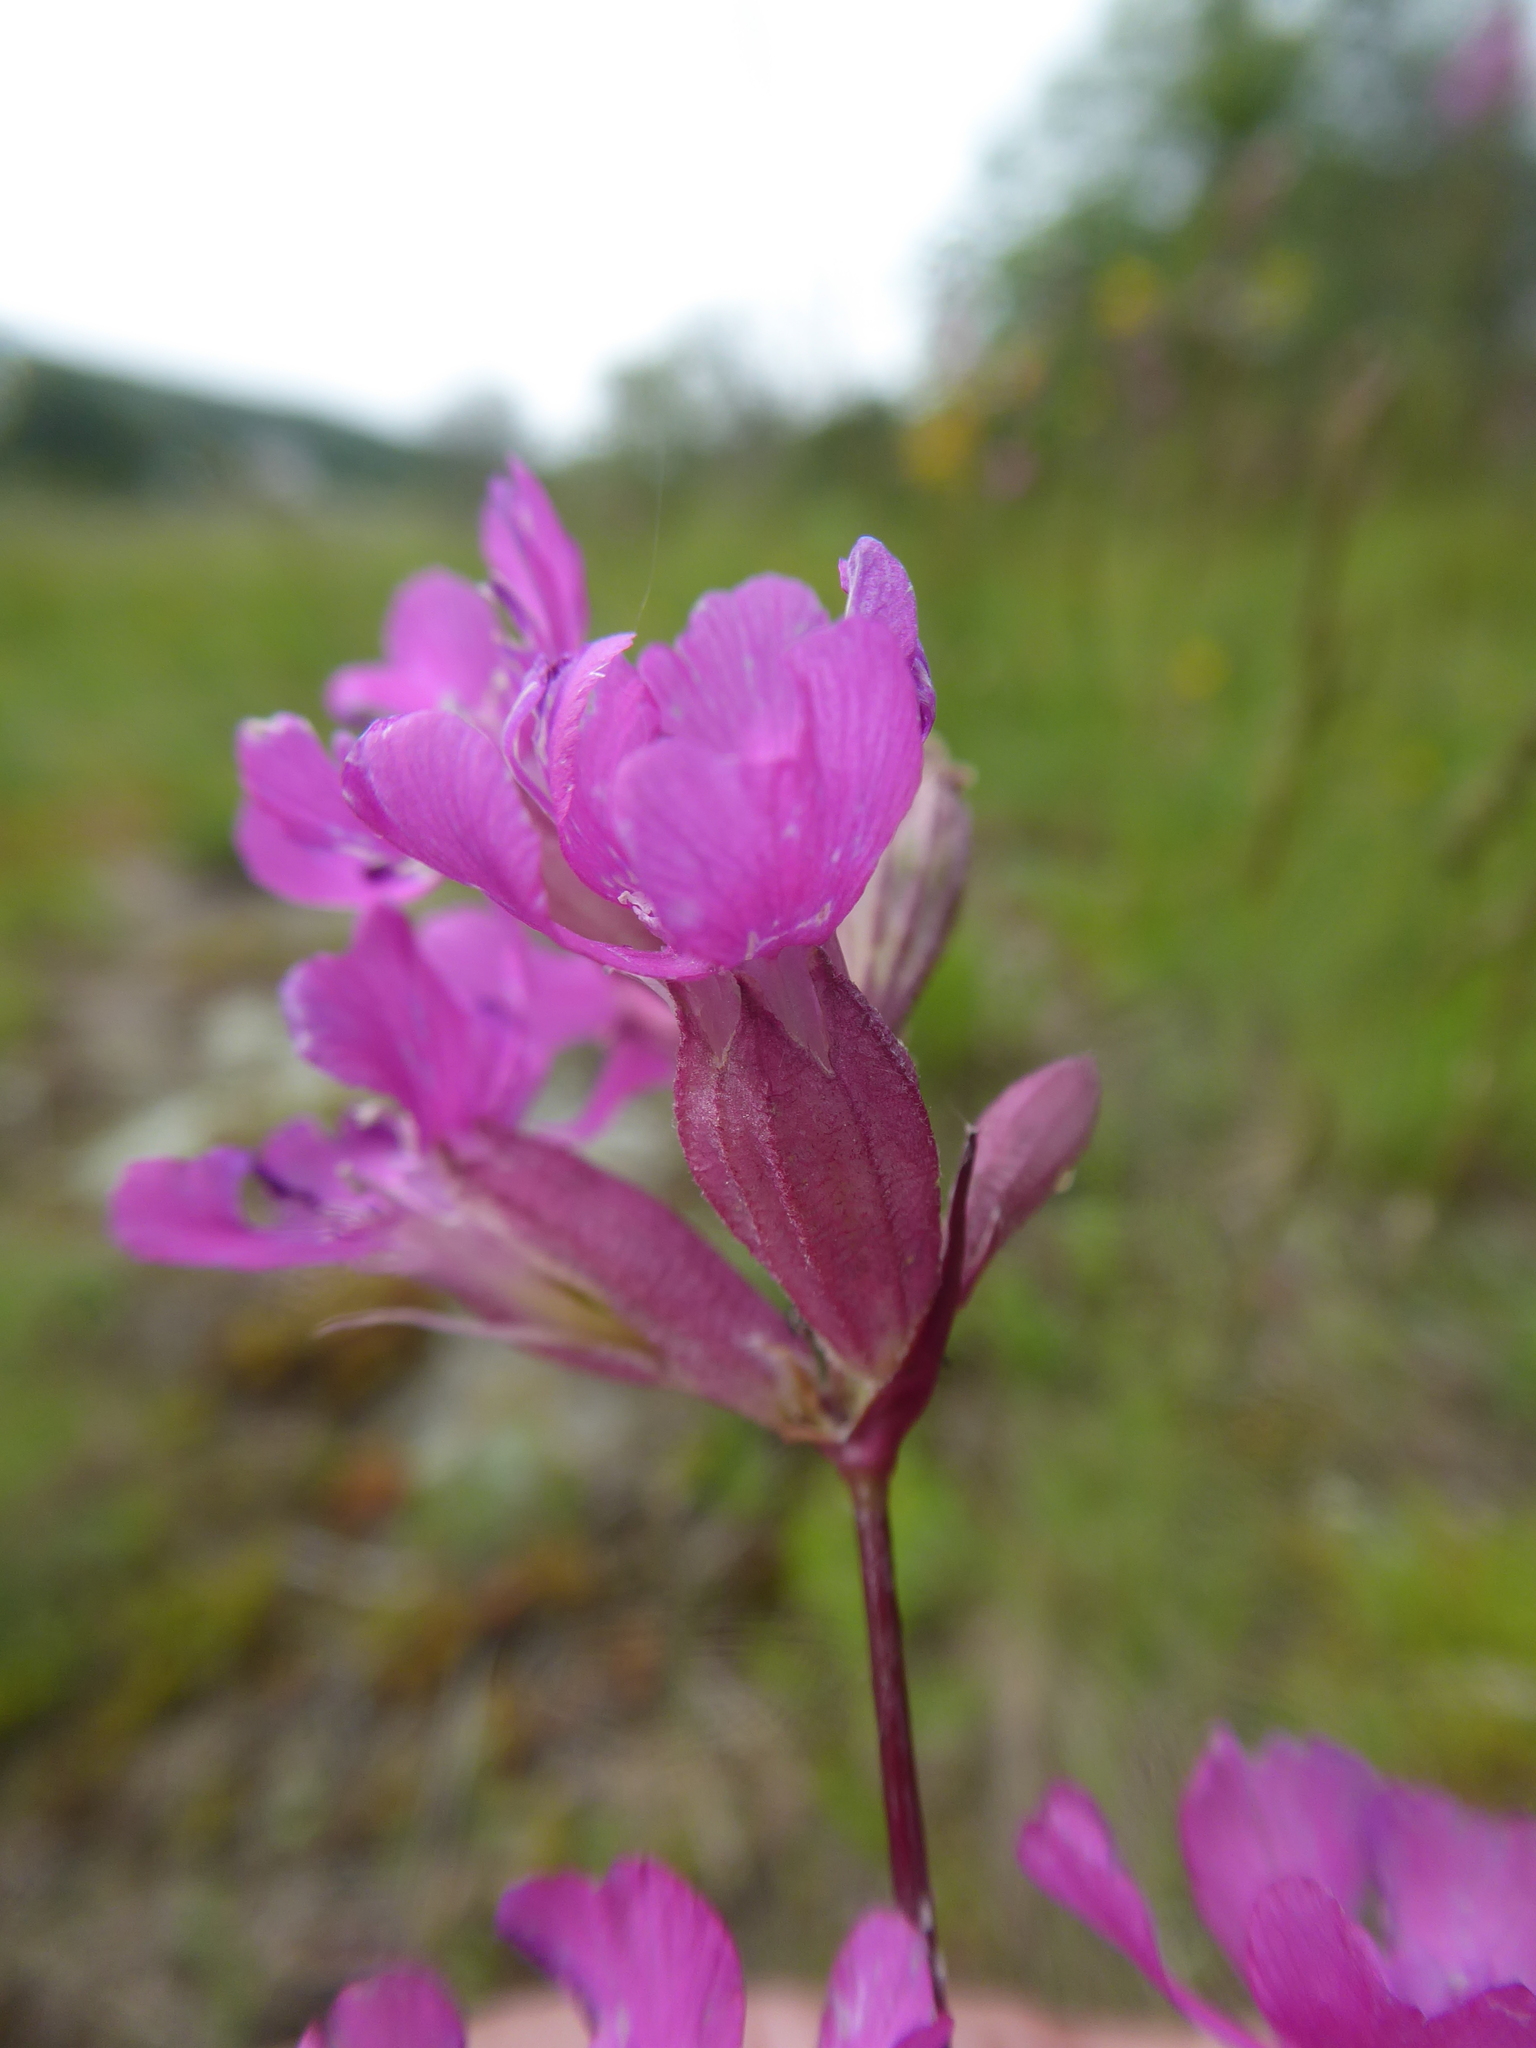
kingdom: Plantae
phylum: Tracheophyta
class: Magnoliopsida
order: Caryophyllales
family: Caryophyllaceae
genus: Viscaria
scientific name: Viscaria vulgaris
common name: Clammy campion
